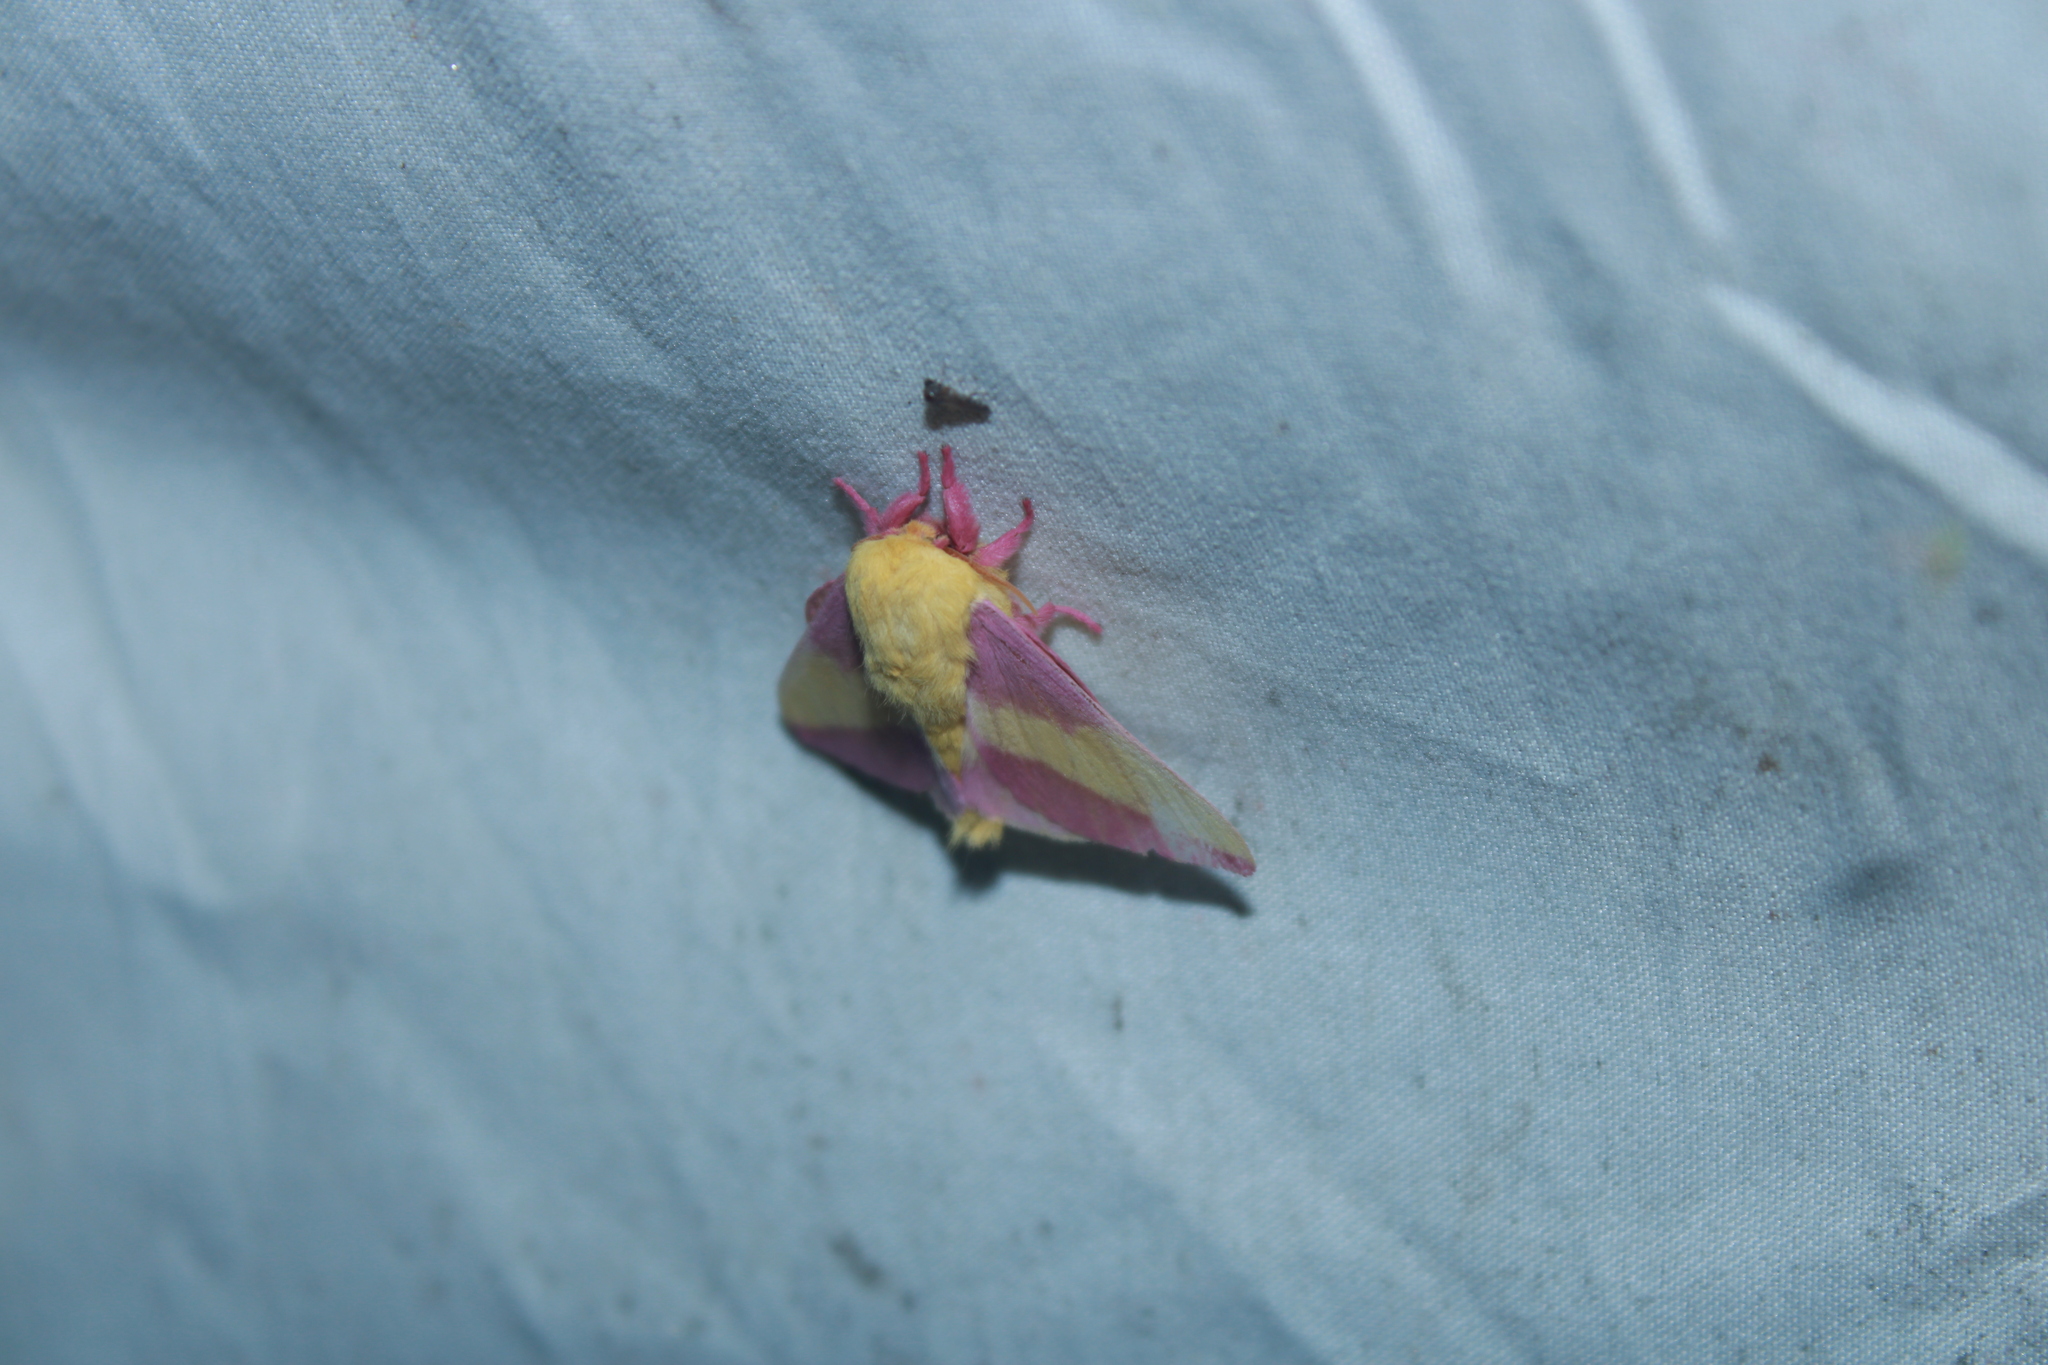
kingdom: Animalia
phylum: Arthropoda
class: Insecta
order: Lepidoptera
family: Saturniidae
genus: Dryocampa
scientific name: Dryocampa rubicunda
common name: Rosy maple moth
